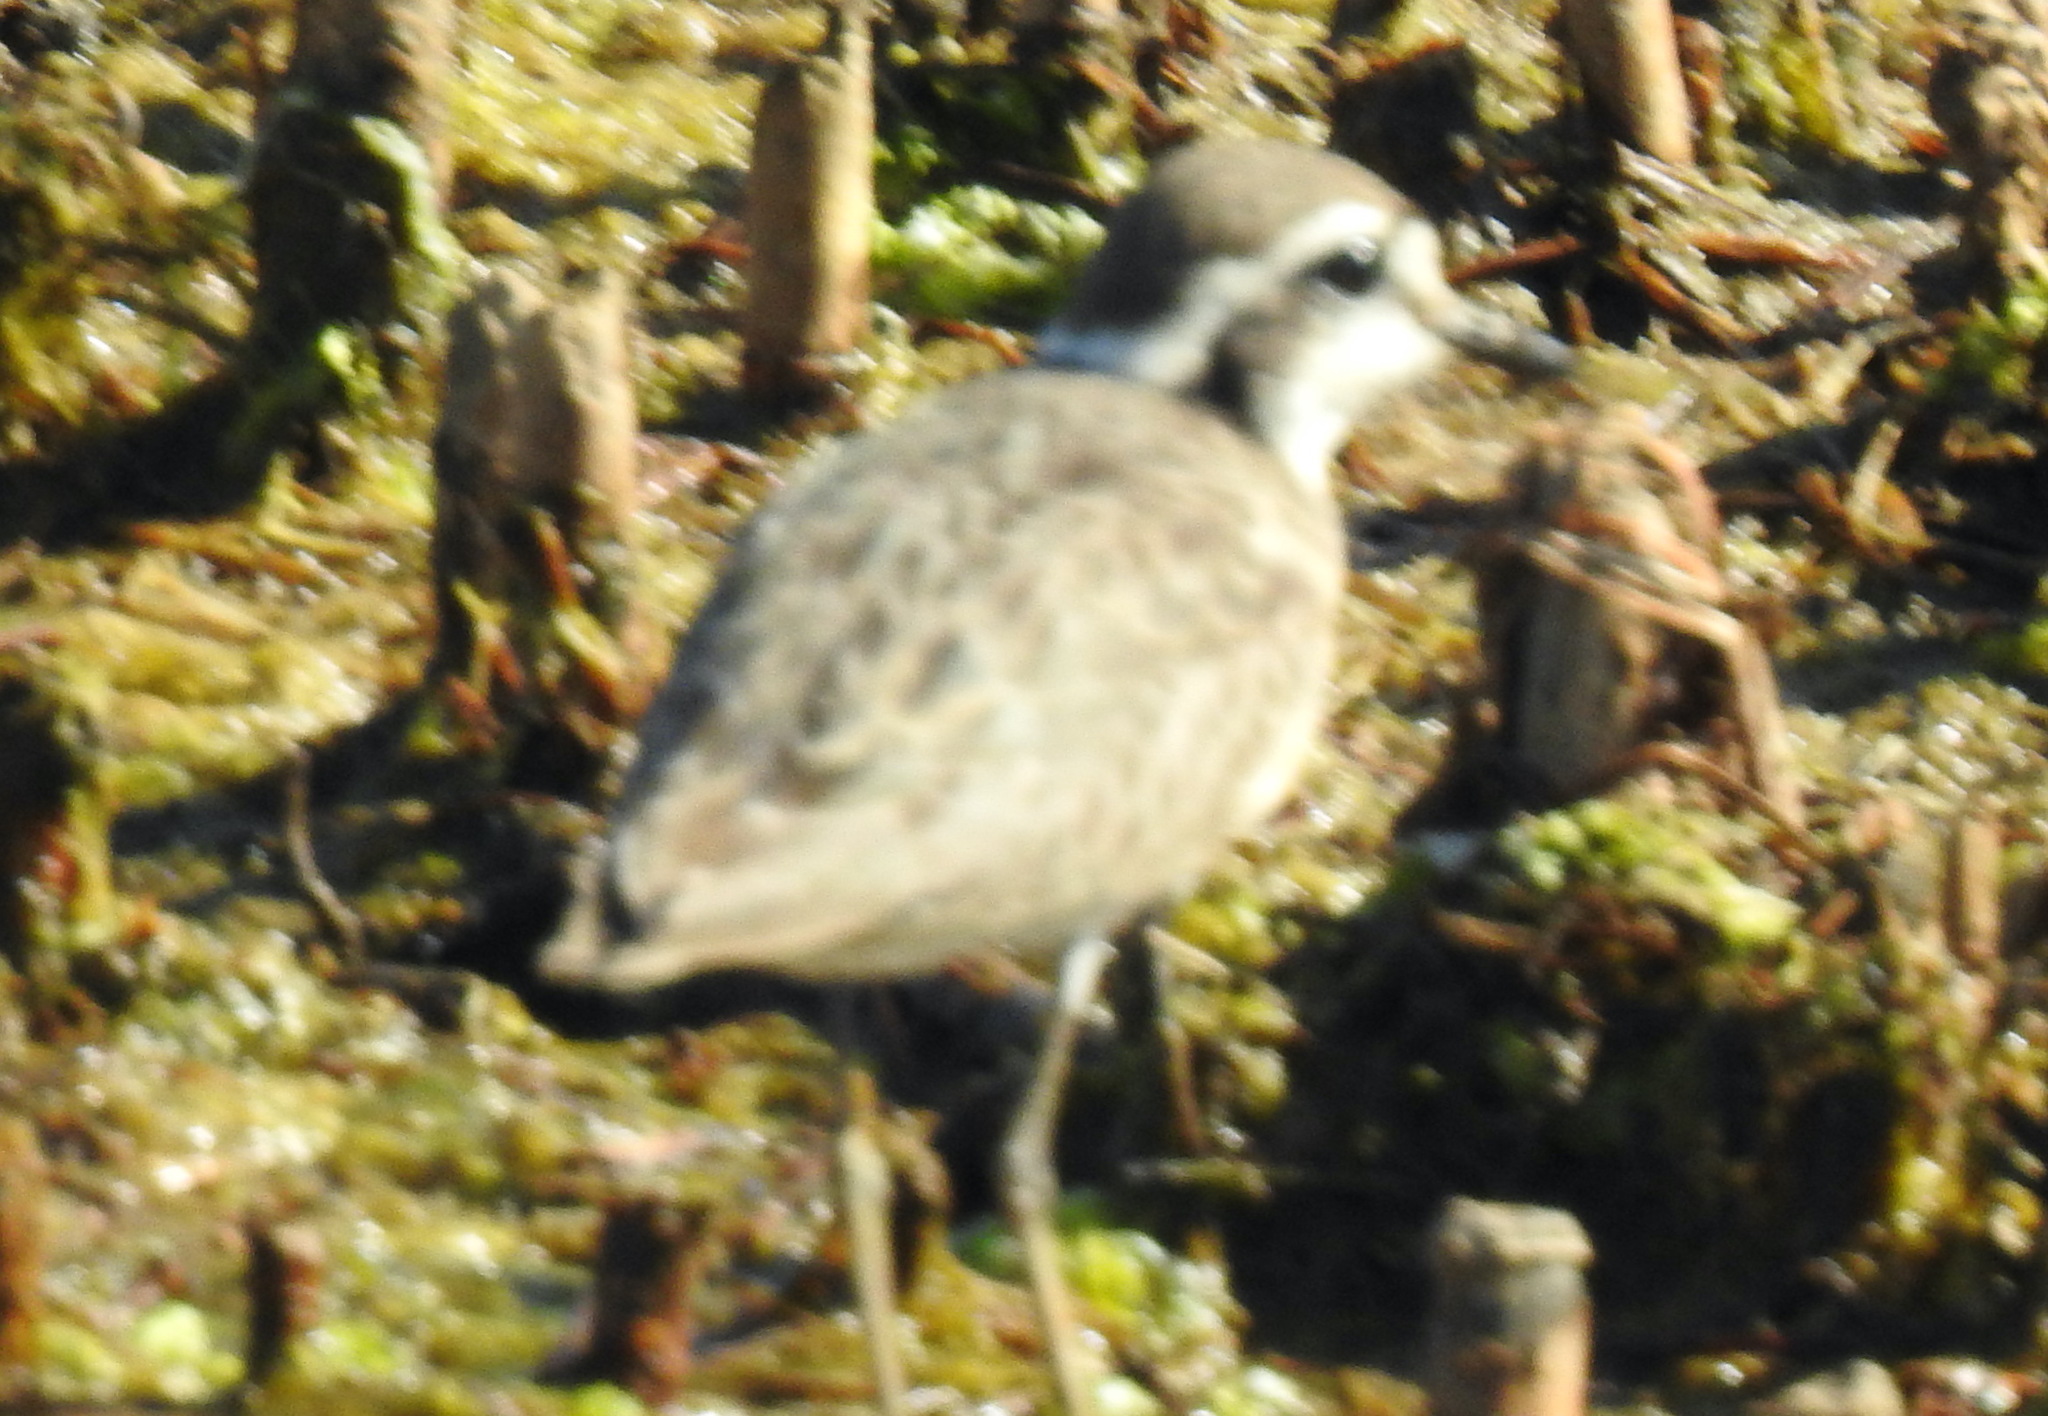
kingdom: Animalia
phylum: Chordata
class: Aves
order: Charadriiformes
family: Charadriidae
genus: Anarhynchus
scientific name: Anarhynchus
